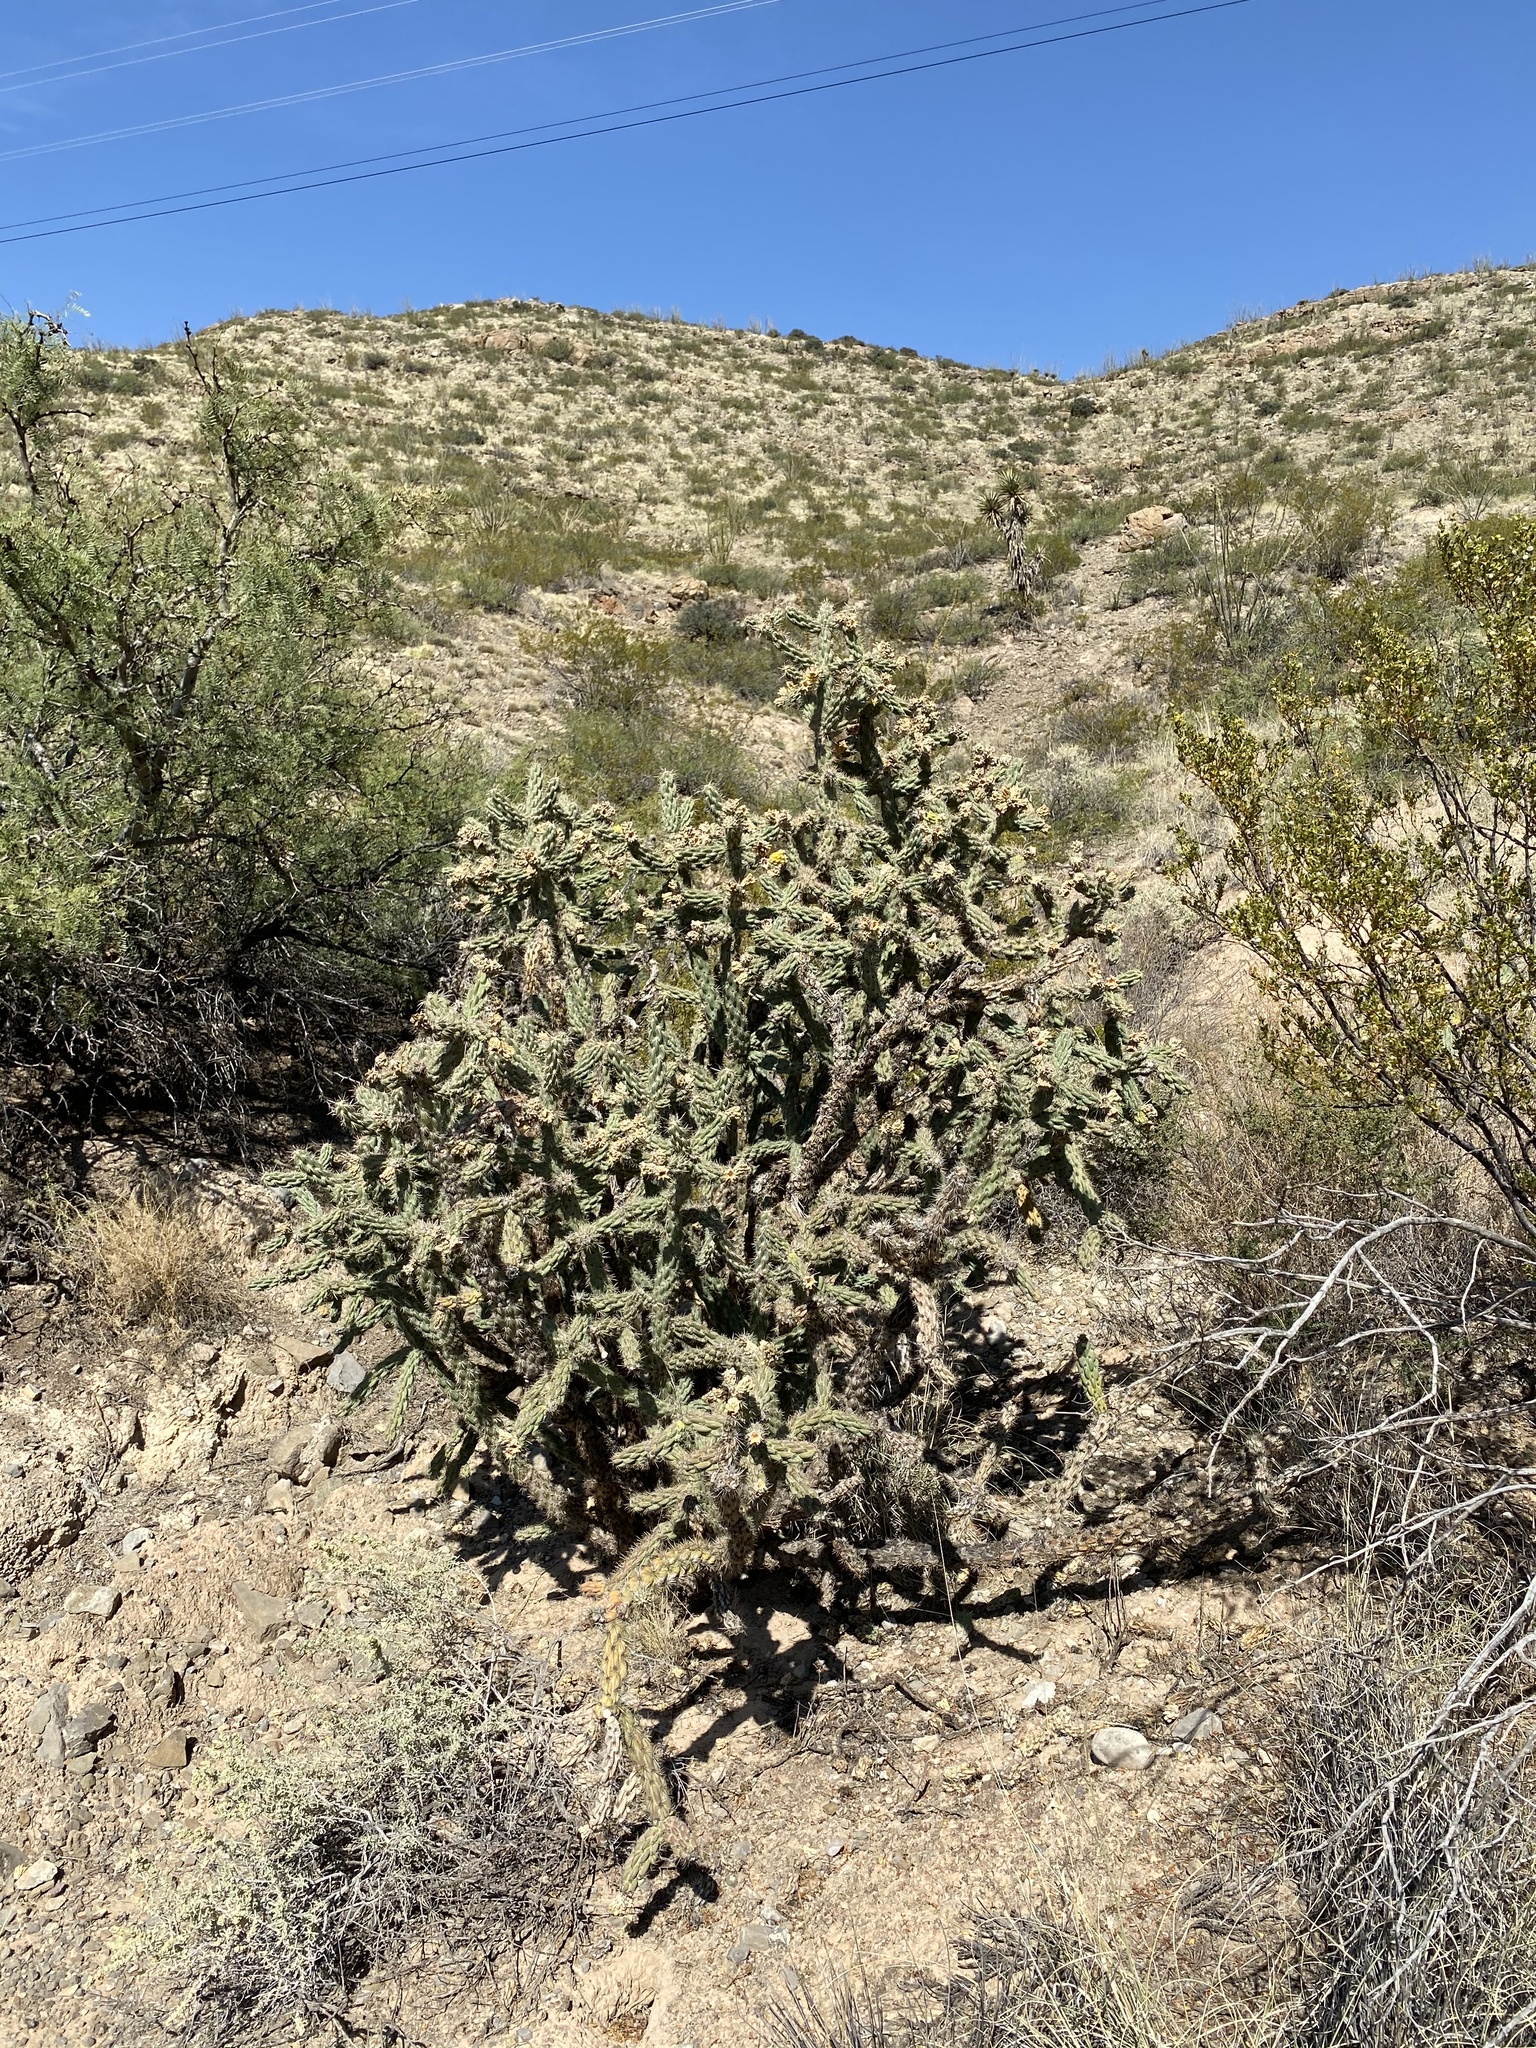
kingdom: Plantae
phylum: Tracheophyta
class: Magnoliopsida
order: Caryophyllales
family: Cactaceae
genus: Cylindropuntia
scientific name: Cylindropuntia imbricata
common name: Candelabrum cactus
